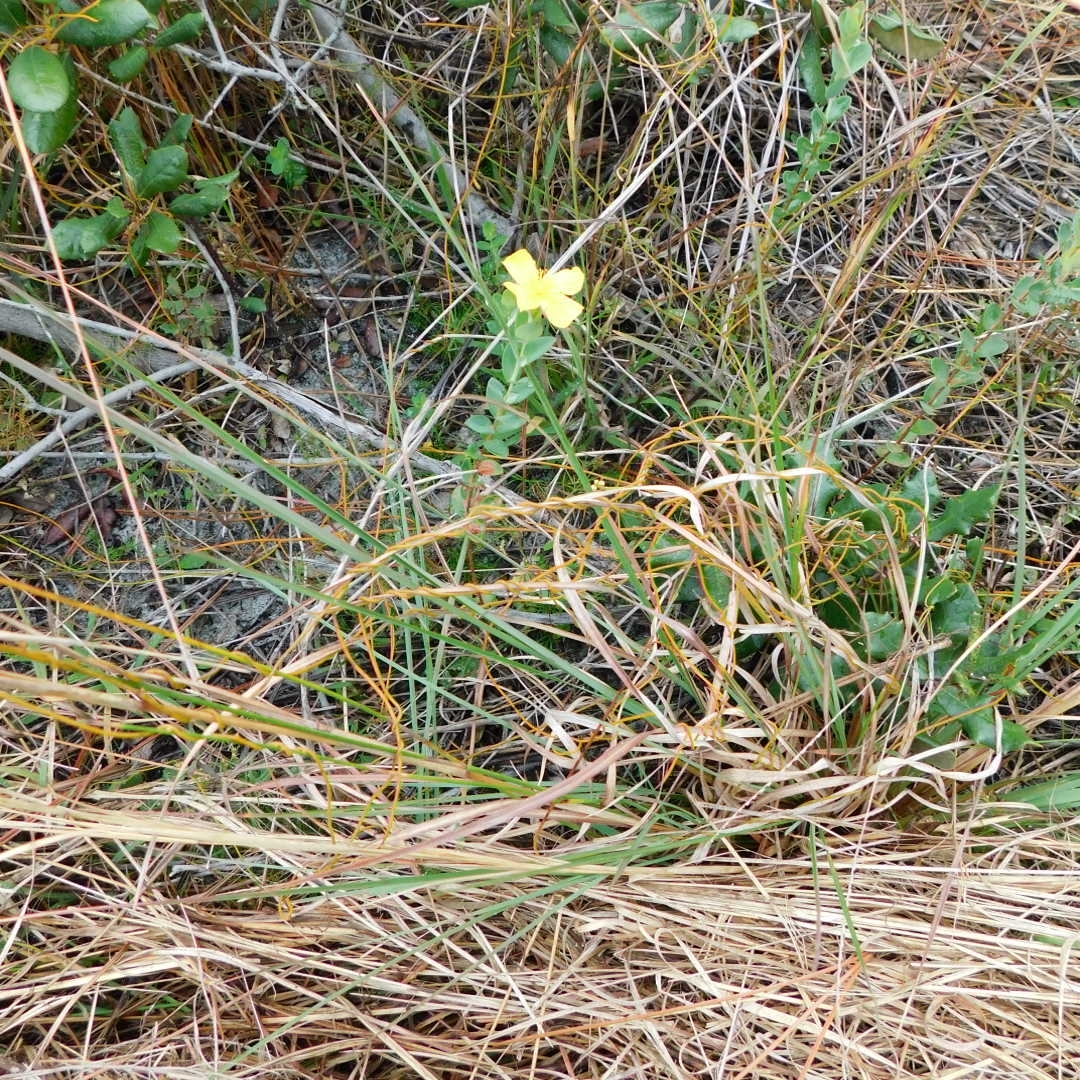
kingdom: Plantae
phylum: Tracheophyta
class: Magnoliopsida
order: Malpighiales
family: Hypericaceae
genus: Hypericum
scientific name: Hypericum tetrapetalum
